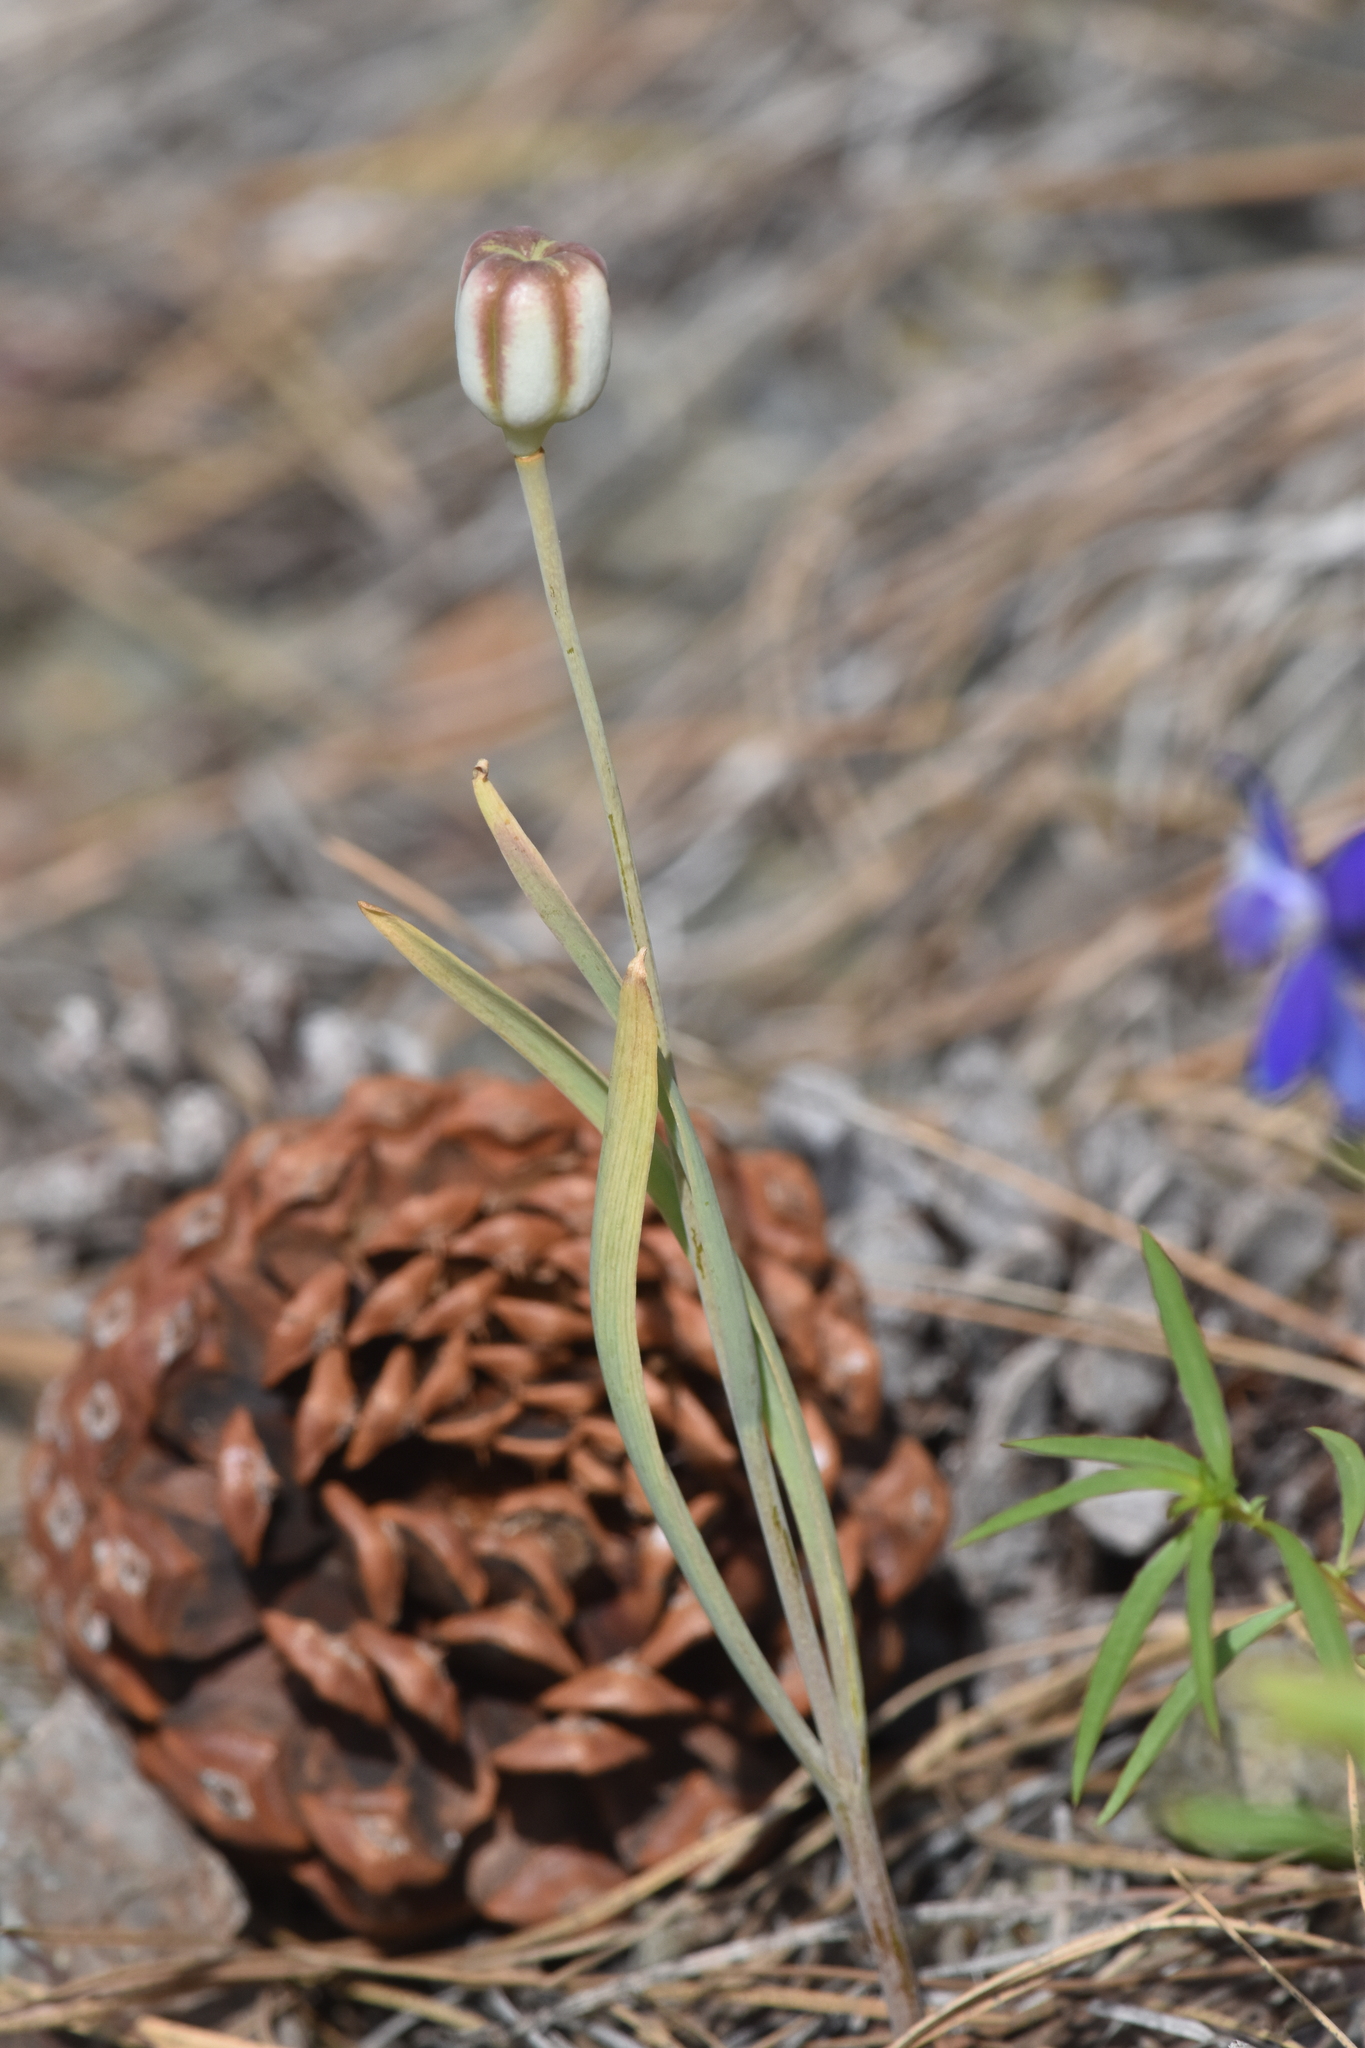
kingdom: Plantae
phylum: Tracheophyta
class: Liliopsida
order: Liliales
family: Liliaceae
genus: Fritillaria
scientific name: Fritillaria pudica
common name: Yellow fritillary
